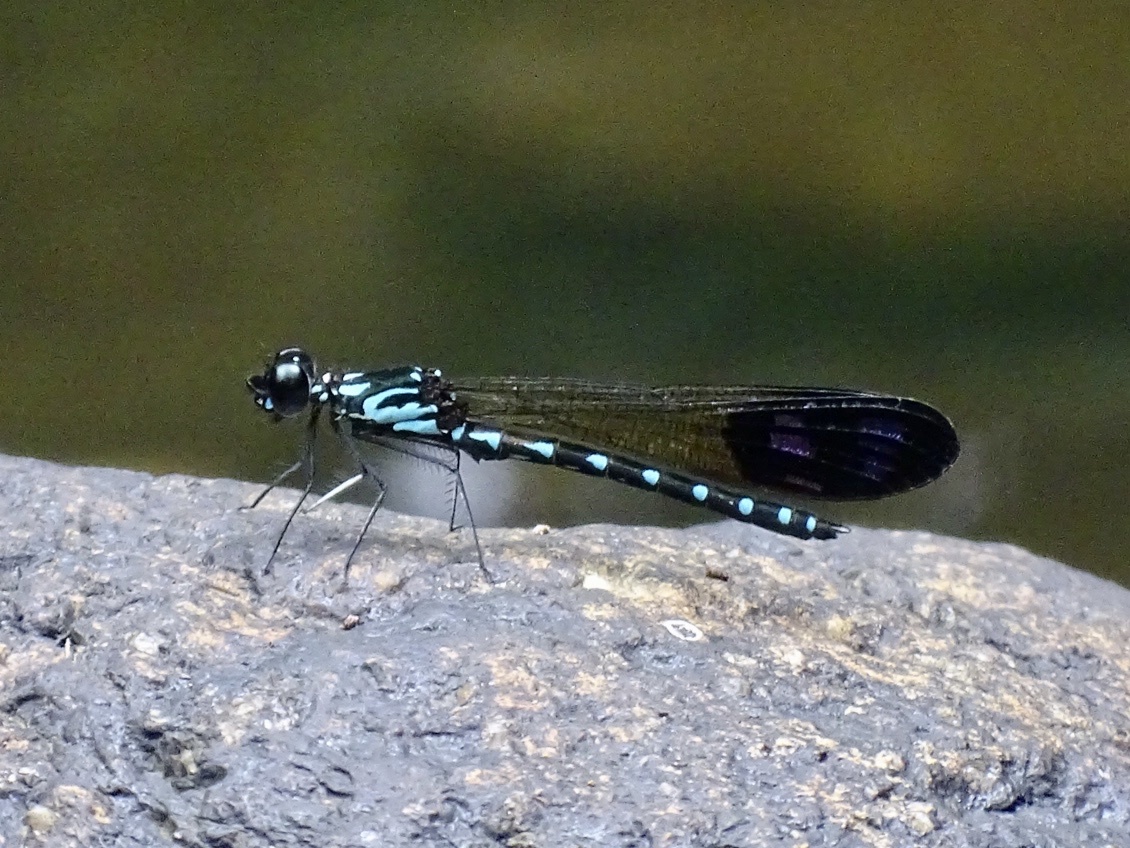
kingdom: Animalia
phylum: Arthropoda
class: Insecta
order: Odonata
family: Chlorocyphidae
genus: Heliocypha
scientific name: Heliocypha perforata
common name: Common blue jewel
